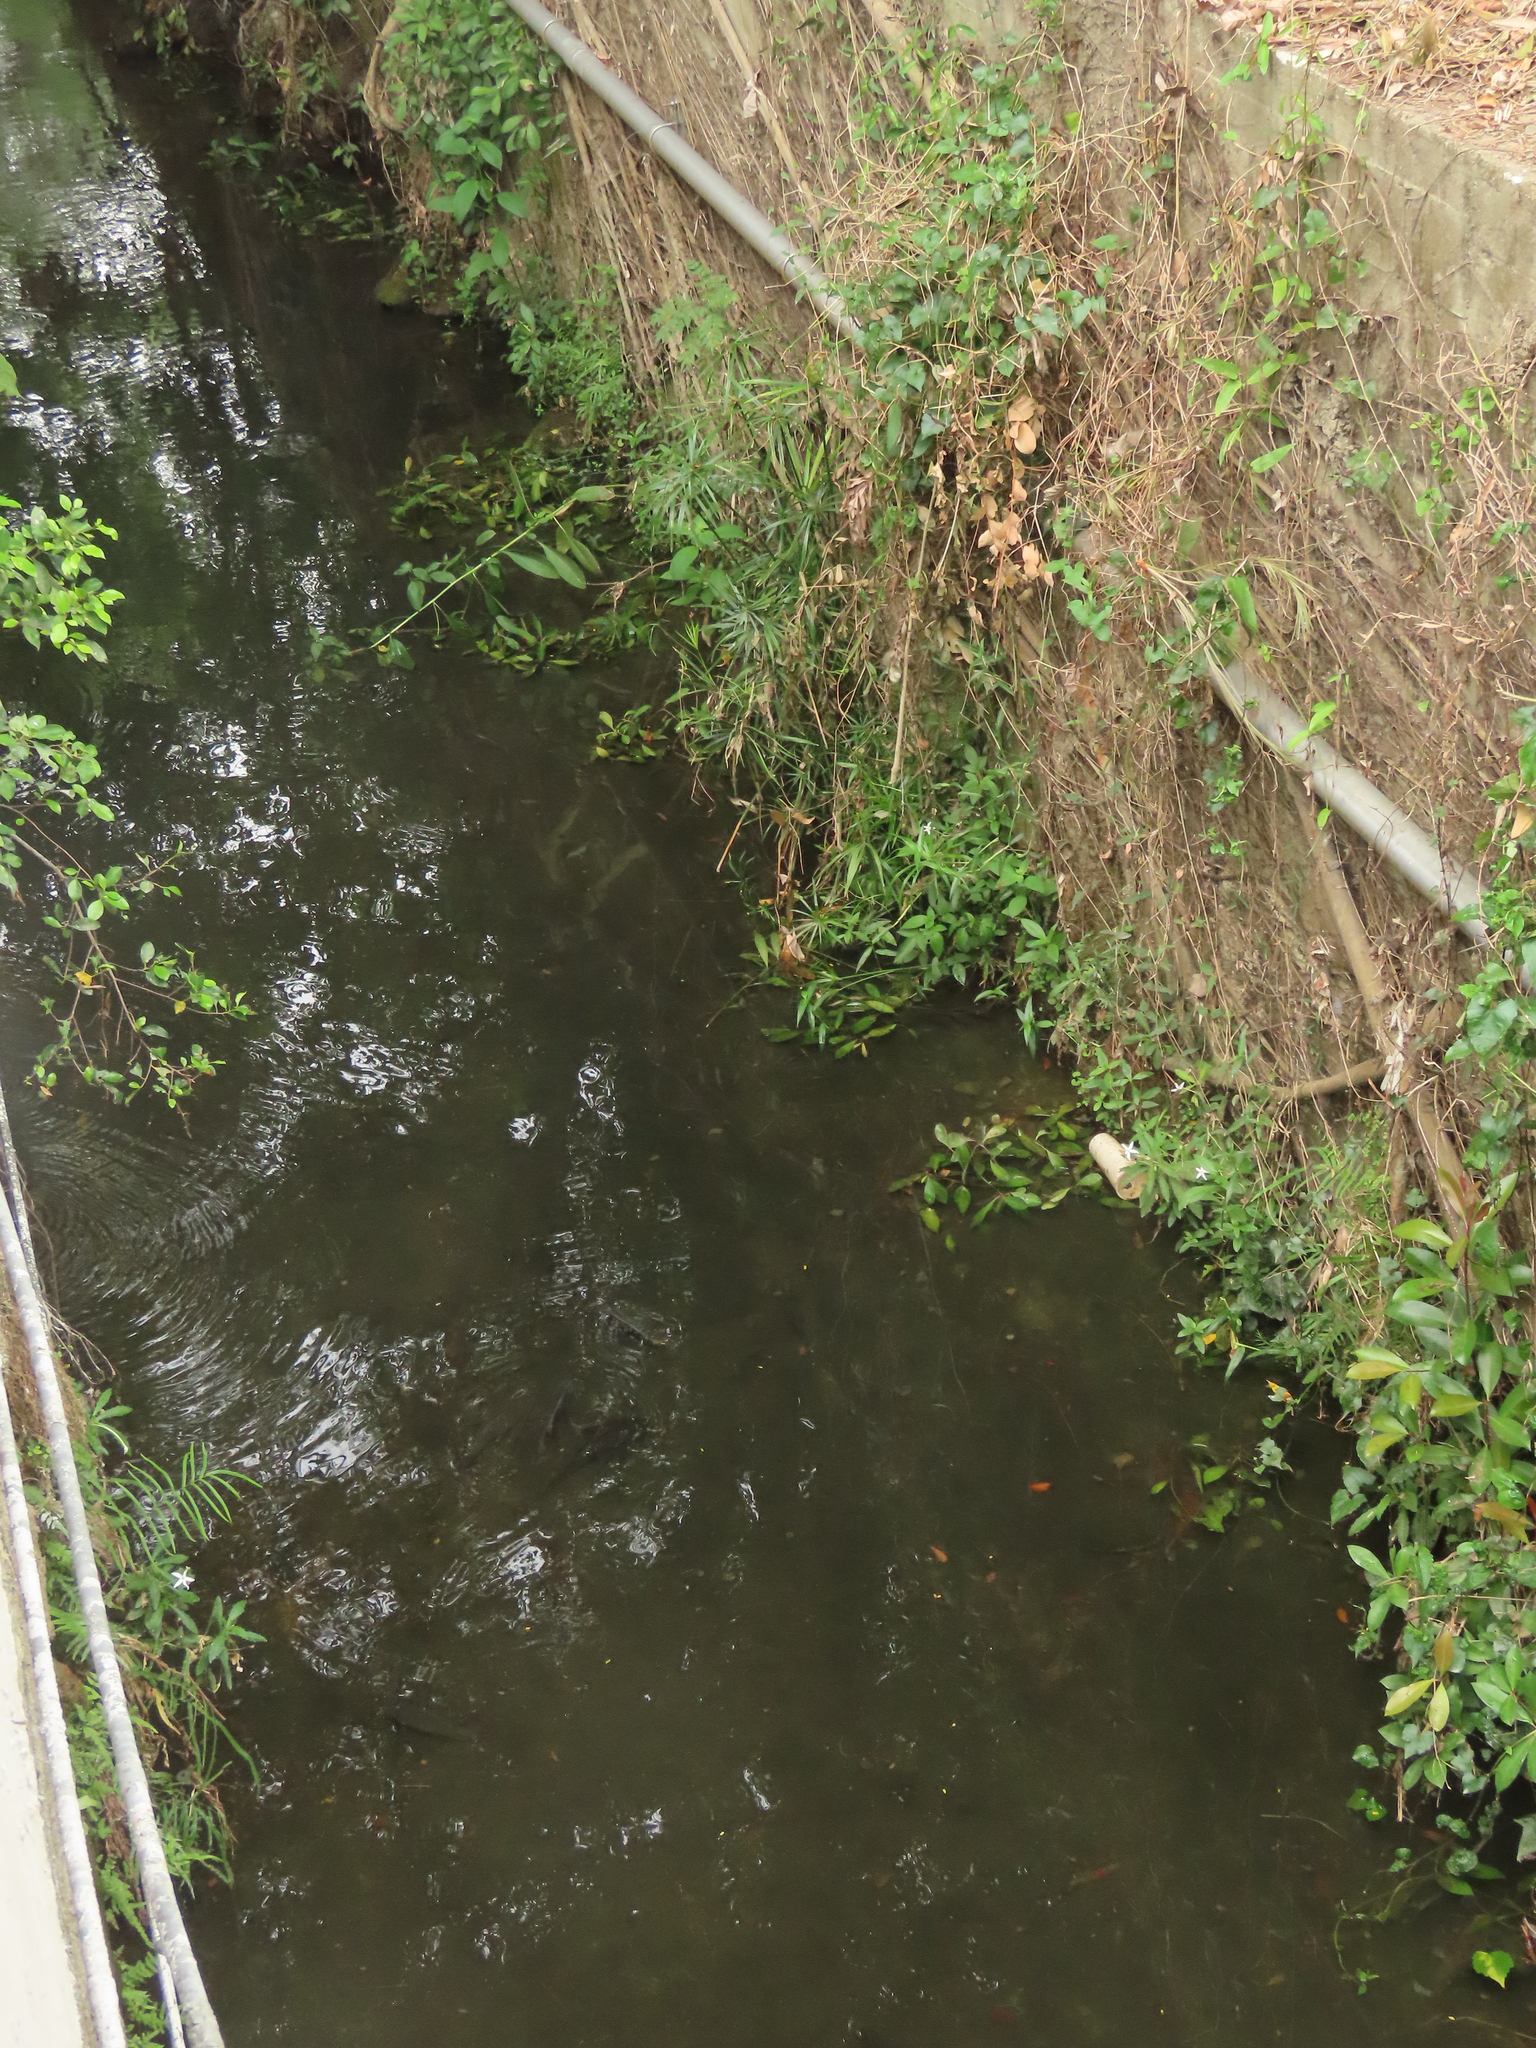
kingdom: Plantae
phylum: Tracheophyta
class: Magnoliopsida
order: Asterales
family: Campanulaceae
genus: Hippobroma
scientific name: Hippobroma longiflora
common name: Madamfate
